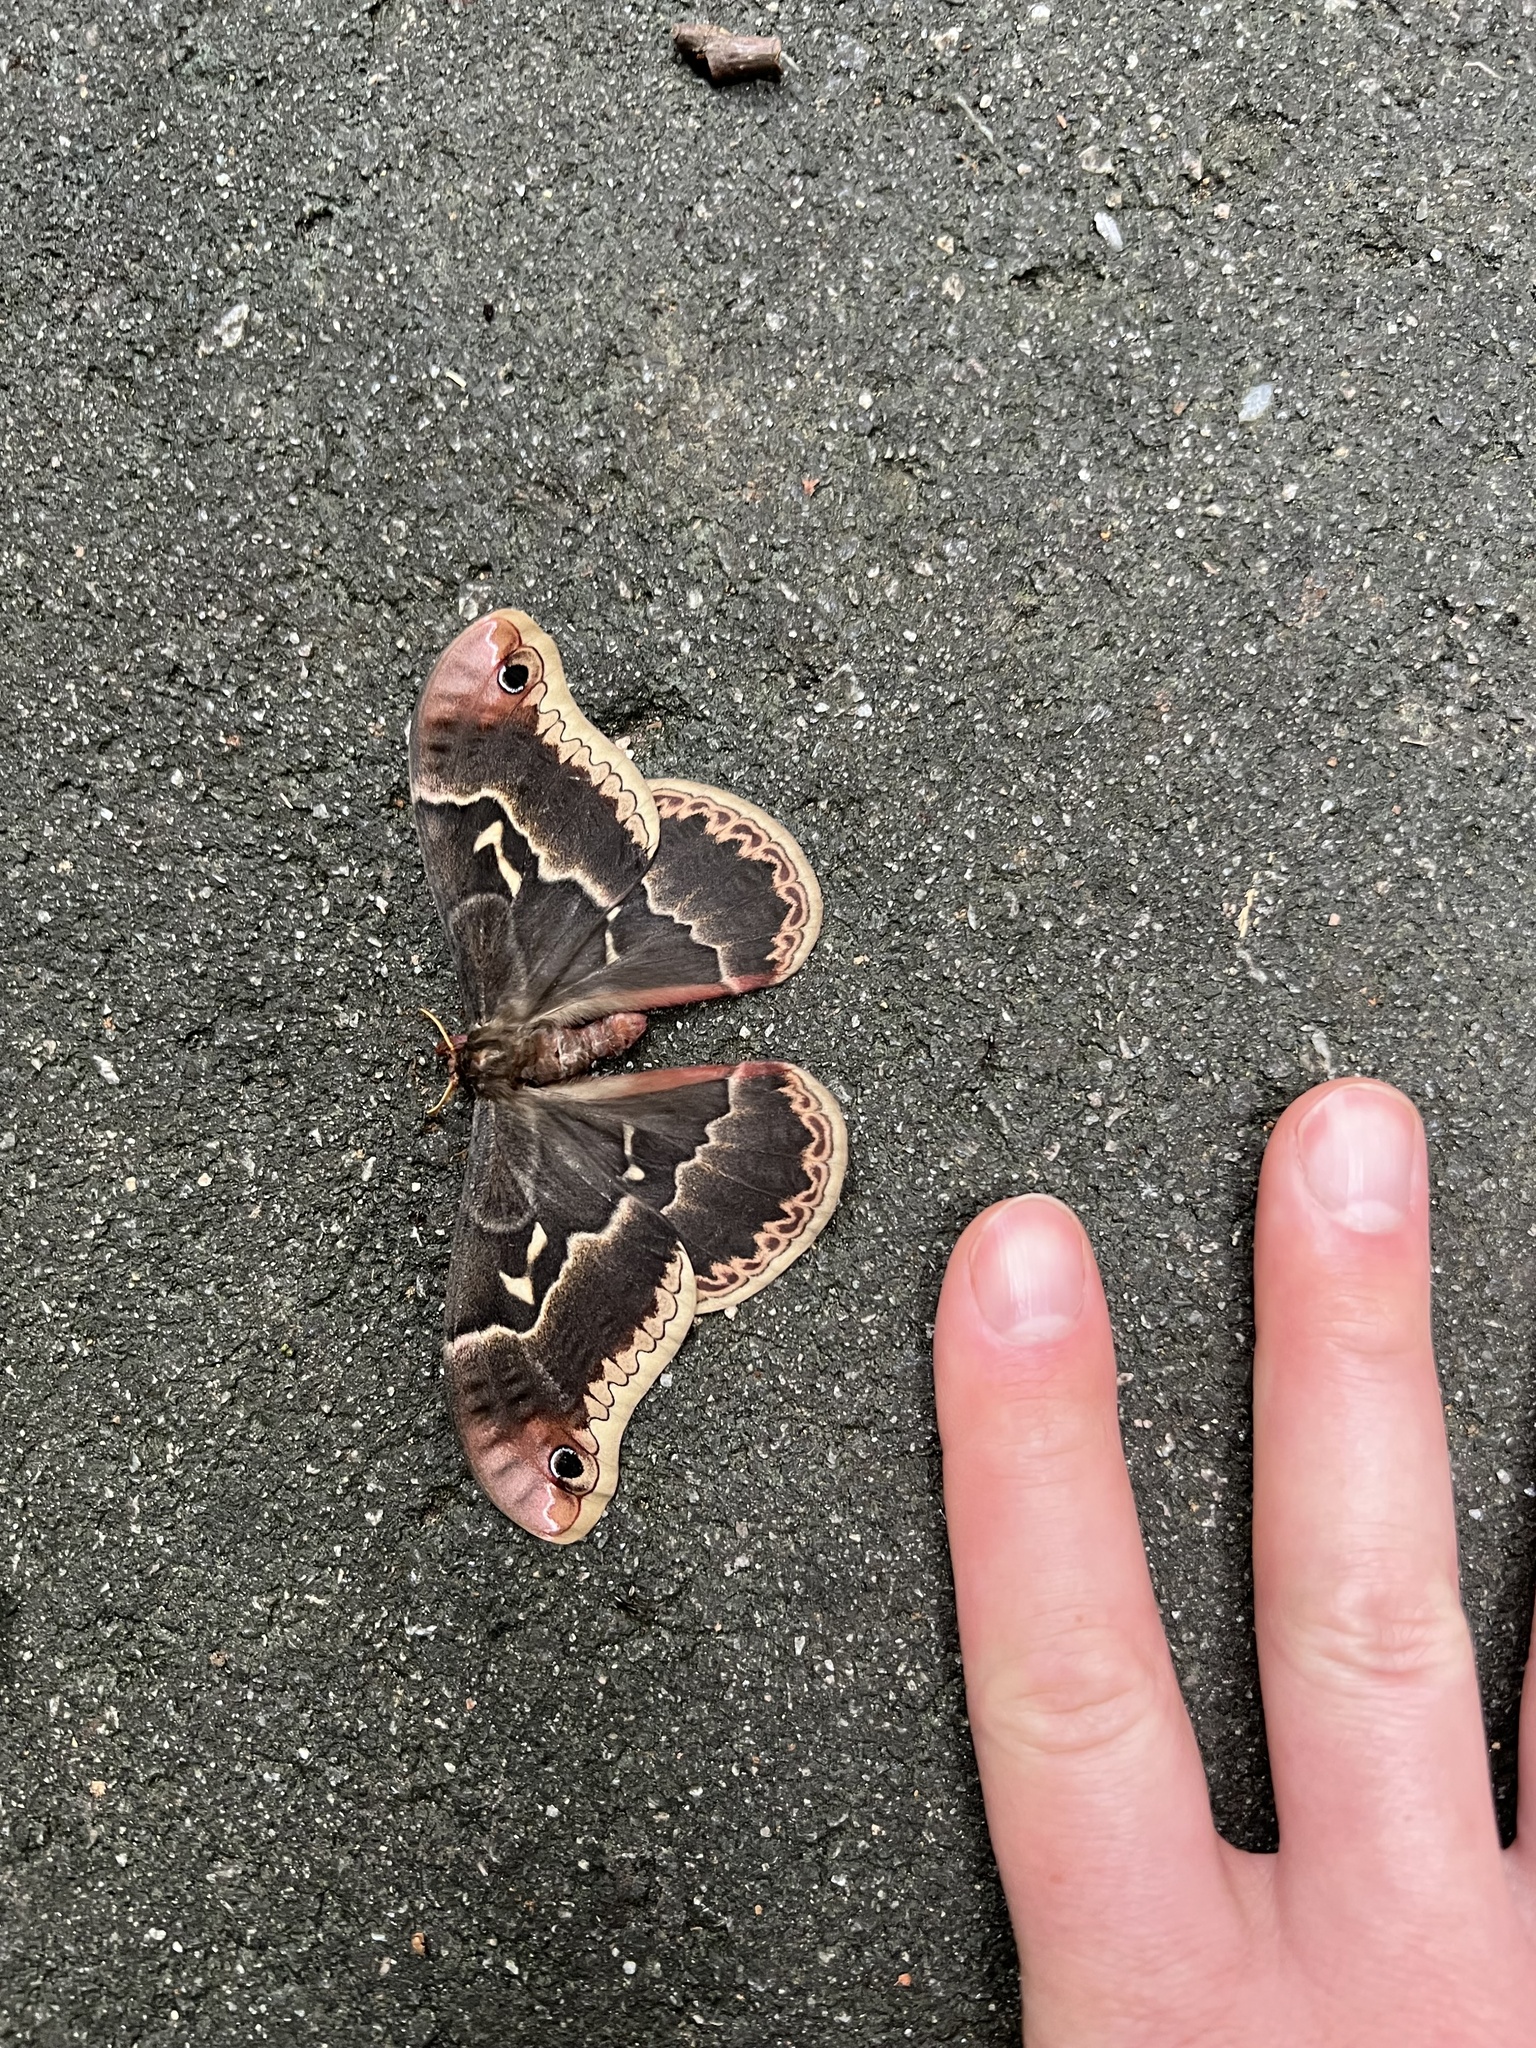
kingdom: Animalia
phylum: Arthropoda
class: Insecta
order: Lepidoptera
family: Saturniidae
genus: Callosamia
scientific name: Callosamia angulifera
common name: Tulip tree silkmoth
